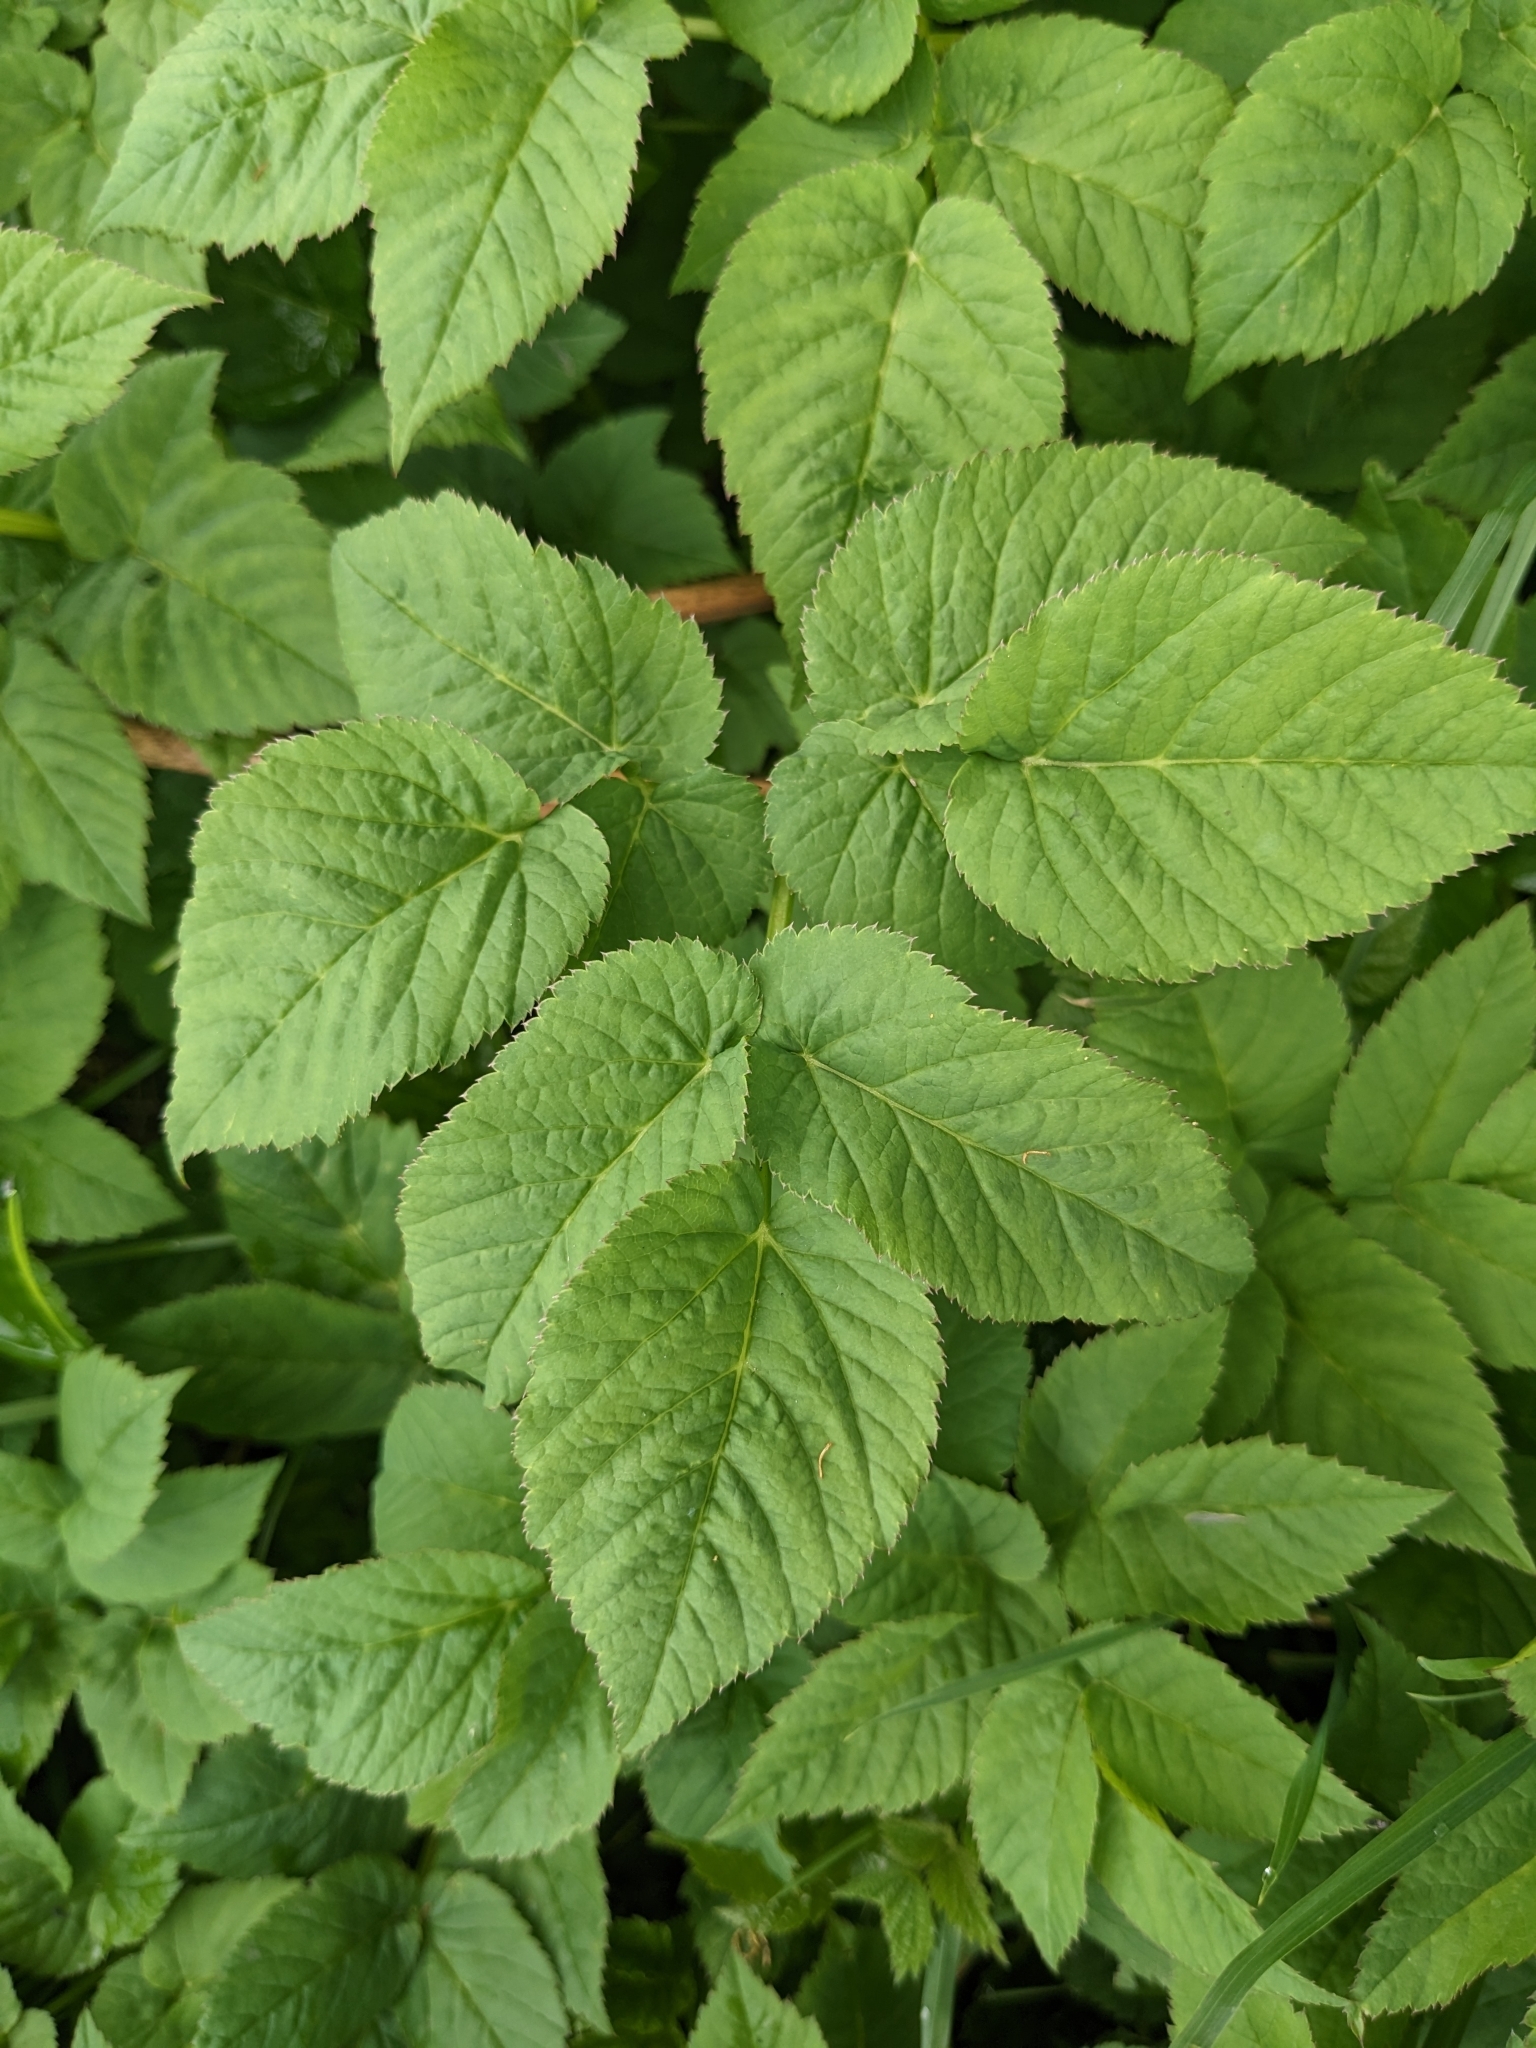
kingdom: Plantae
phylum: Tracheophyta
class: Magnoliopsida
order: Apiales
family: Apiaceae
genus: Aegopodium
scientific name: Aegopodium podagraria
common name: Ground-elder
